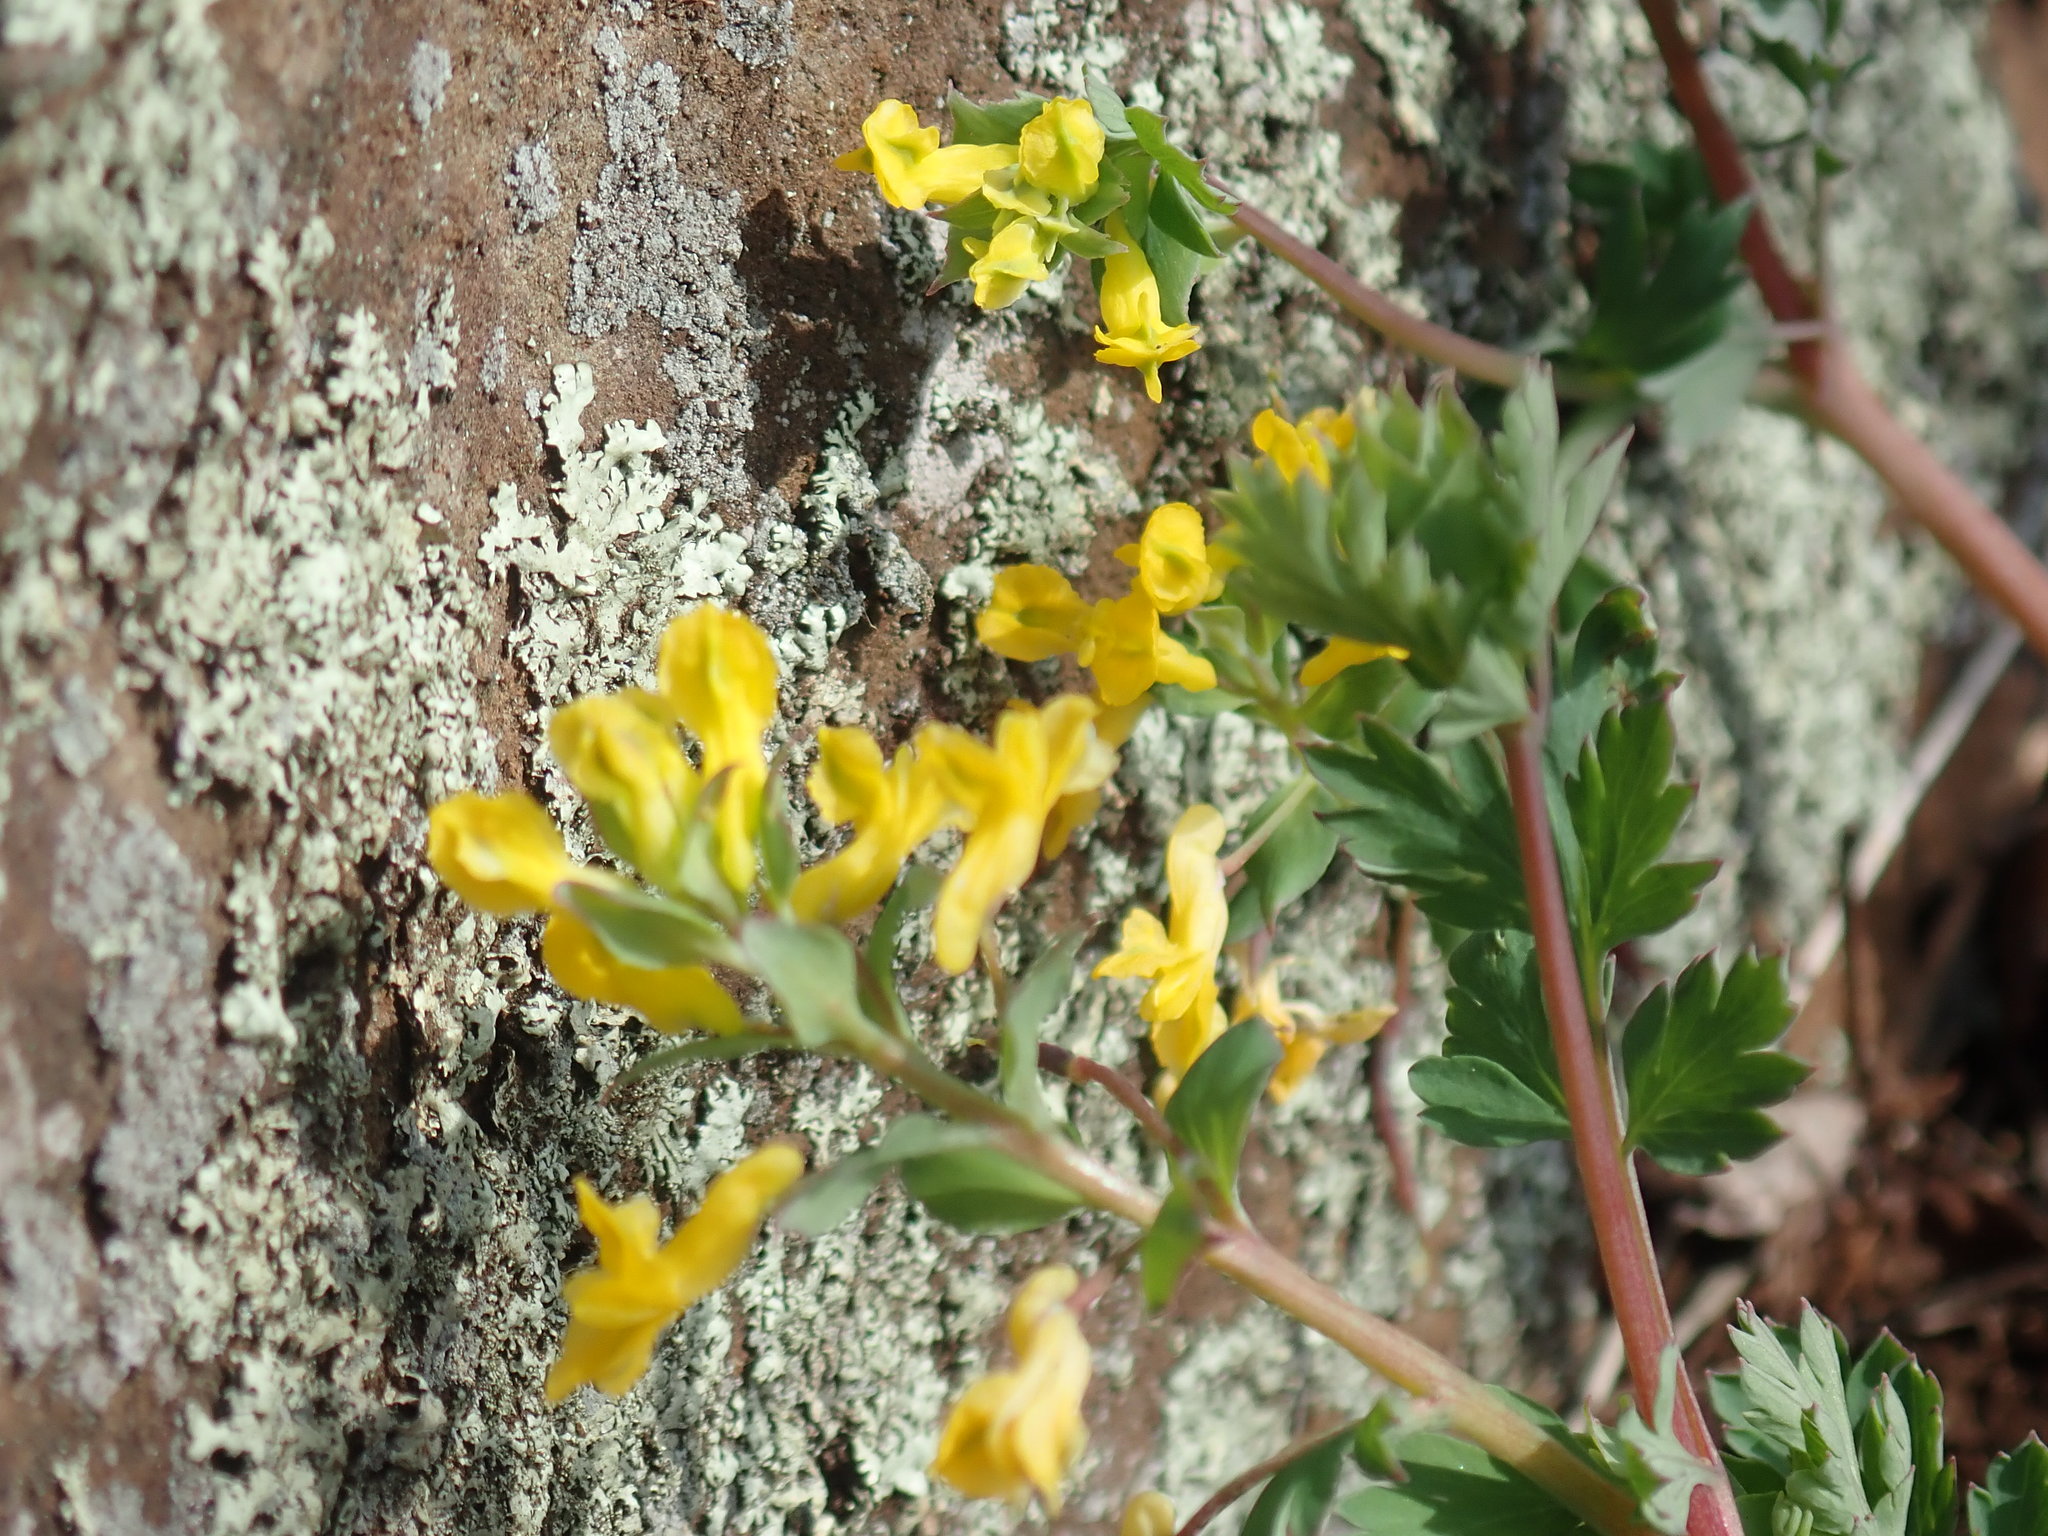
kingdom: Plantae
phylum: Tracheophyta
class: Magnoliopsida
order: Ranunculales
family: Papaveraceae
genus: Pseudofumaria
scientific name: Pseudofumaria lutea
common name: Yellow corydalis
